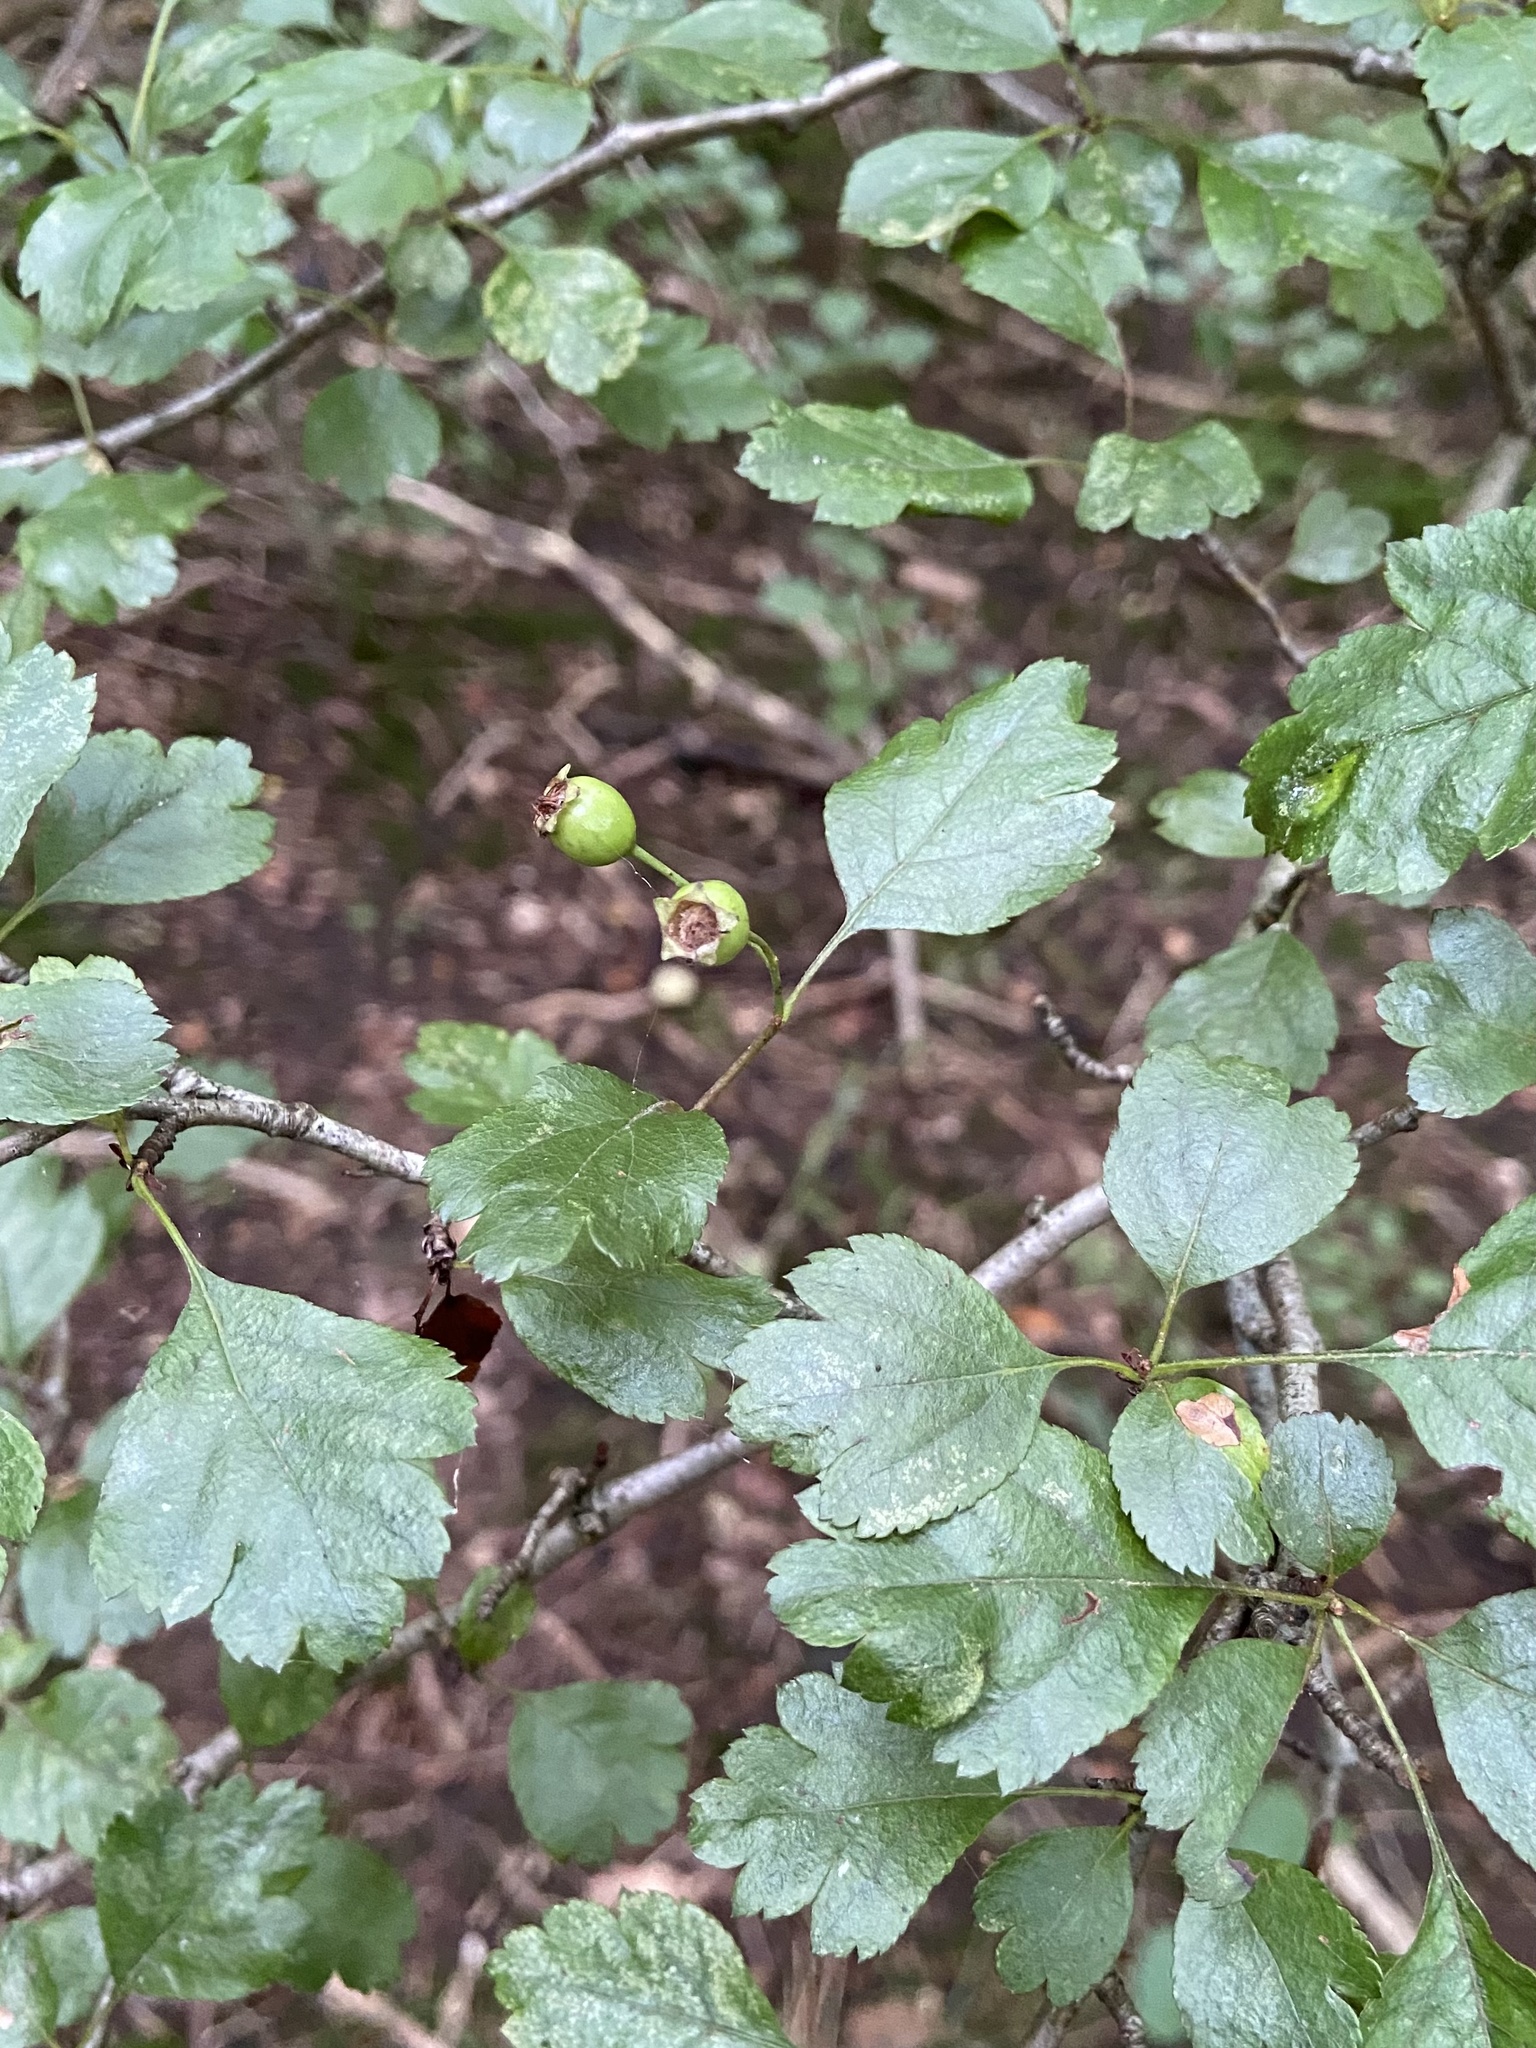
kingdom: Plantae
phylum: Tracheophyta
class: Magnoliopsida
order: Rosales
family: Rosaceae
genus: Crataegus
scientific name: Crataegus laevigata
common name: Midland hawthorn
